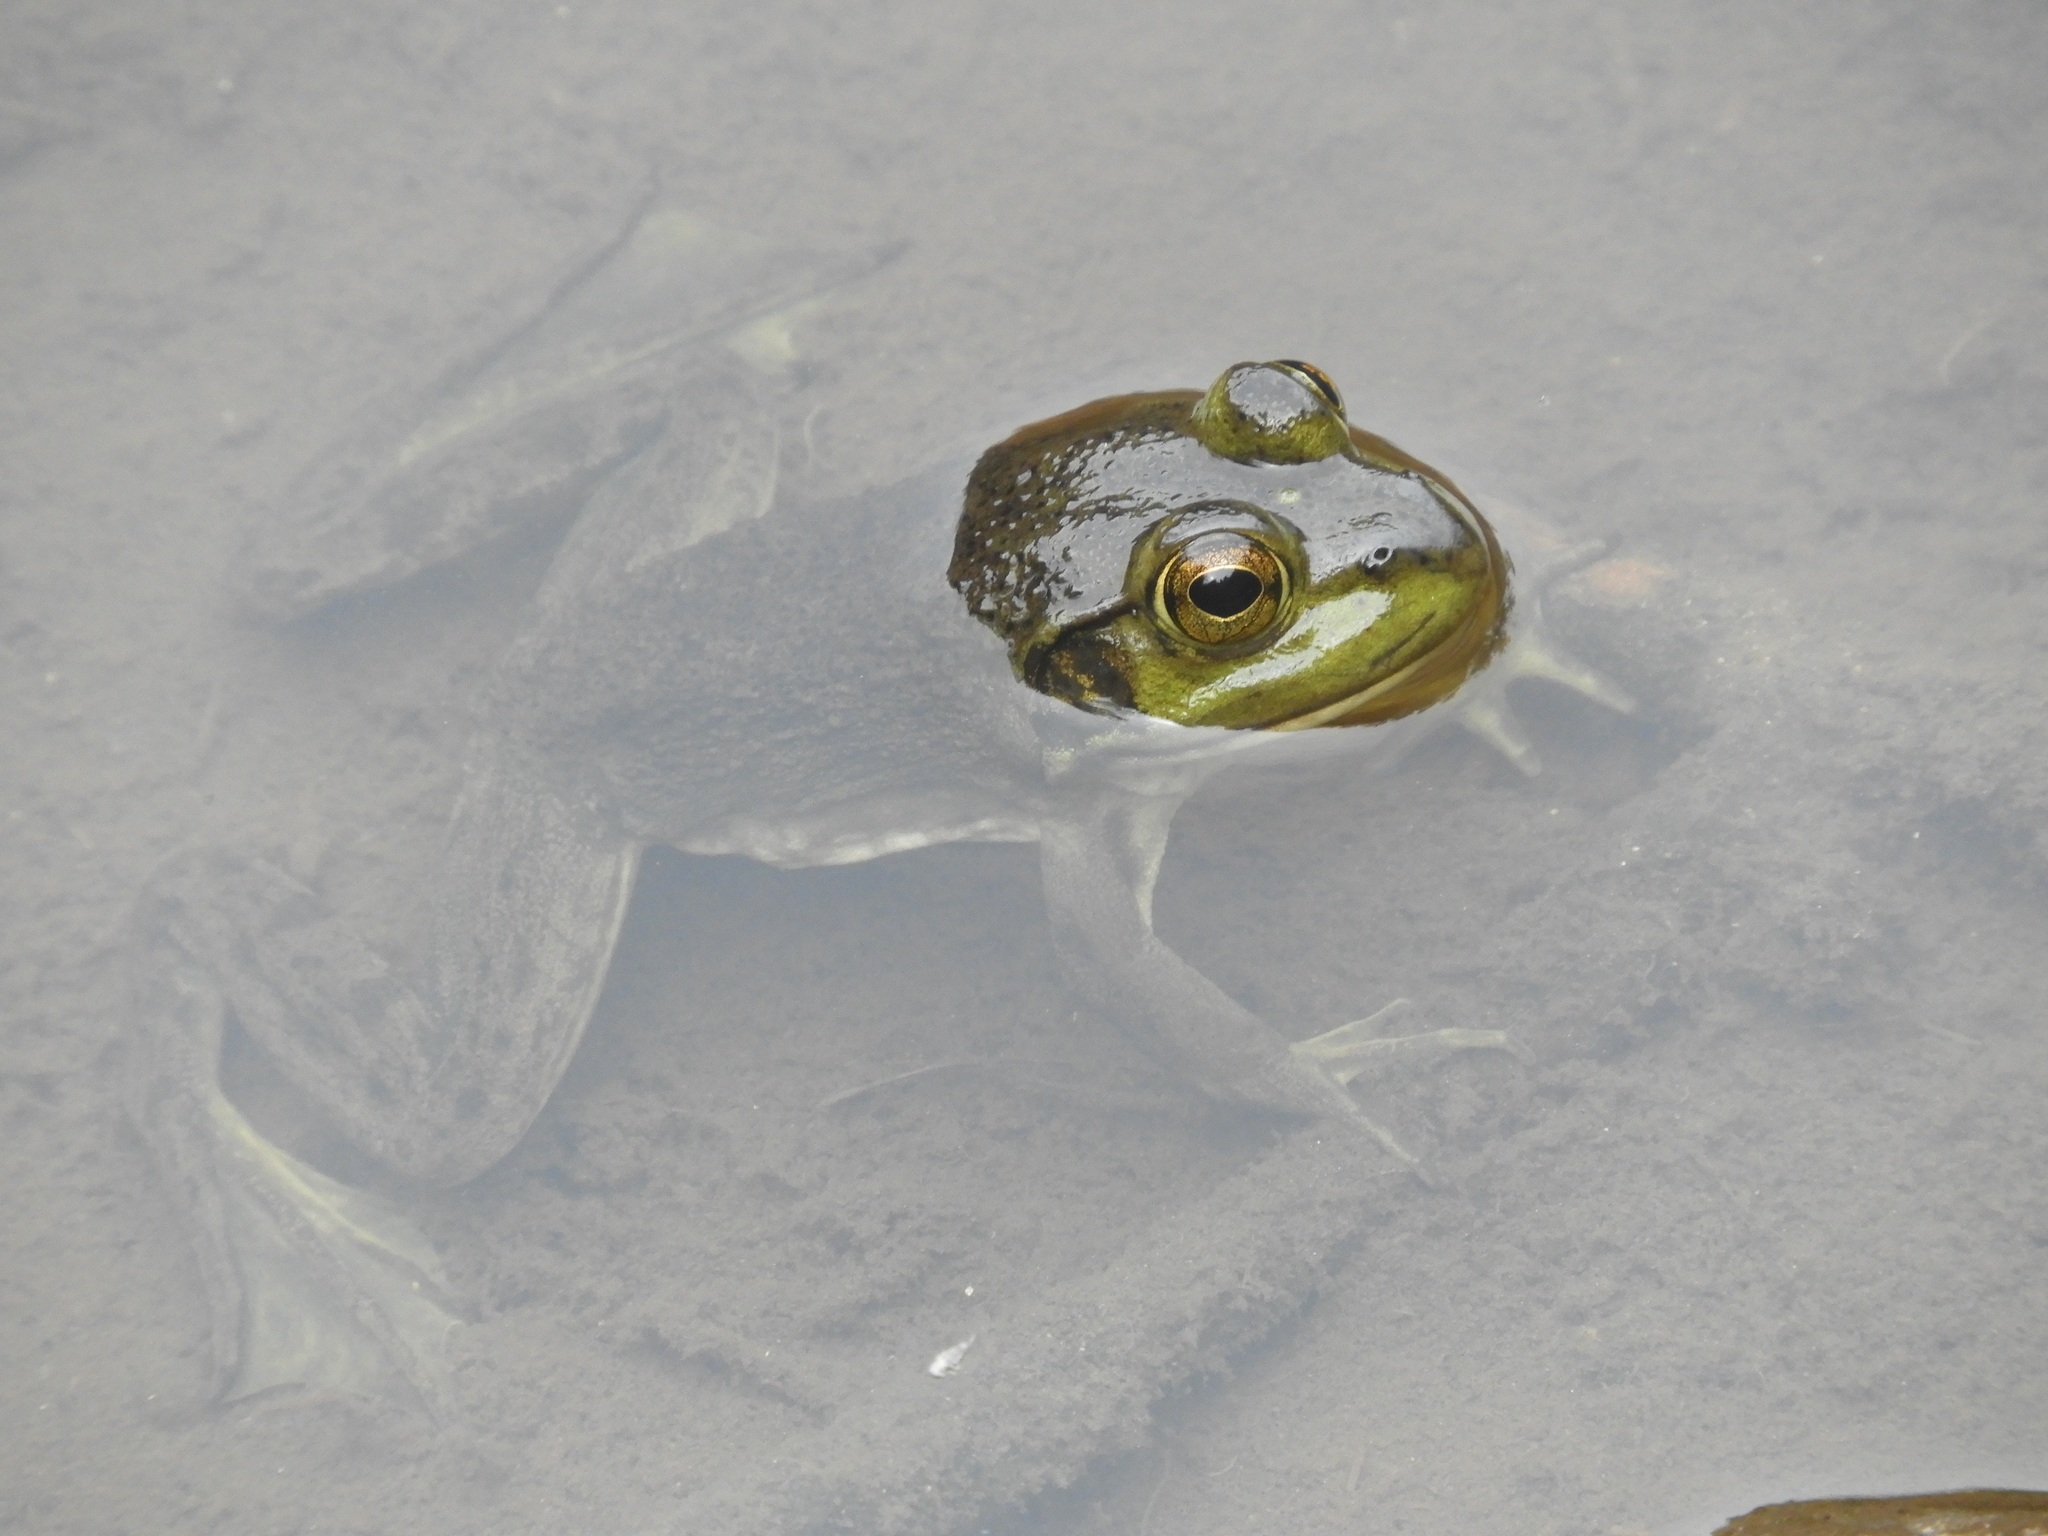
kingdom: Animalia
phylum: Chordata
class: Amphibia
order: Anura
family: Ranidae
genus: Lithobates
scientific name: Lithobates catesbeianus
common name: American bullfrog
